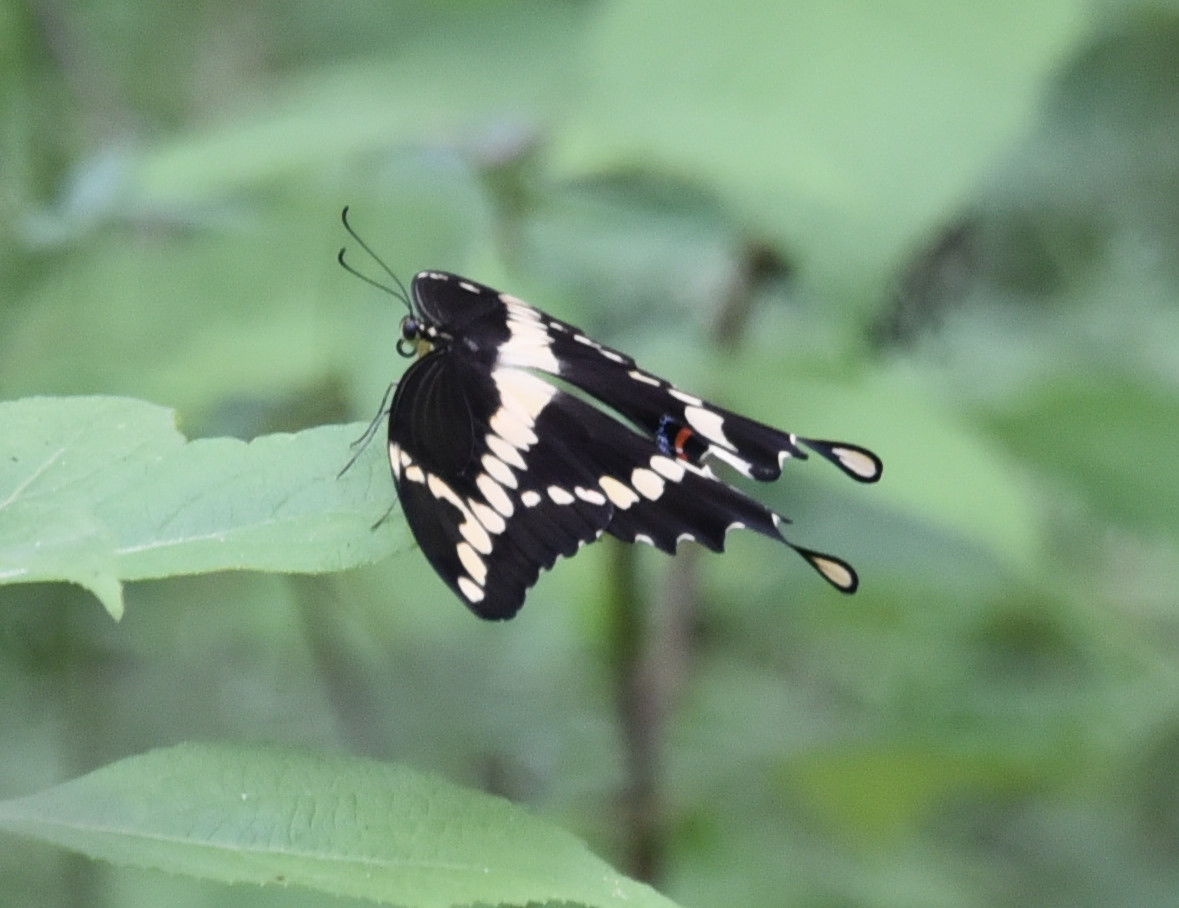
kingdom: Animalia
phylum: Arthropoda
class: Insecta
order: Lepidoptera
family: Papilionidae
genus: Papilio
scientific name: Papilio cresphontes
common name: Giant swallowtail
